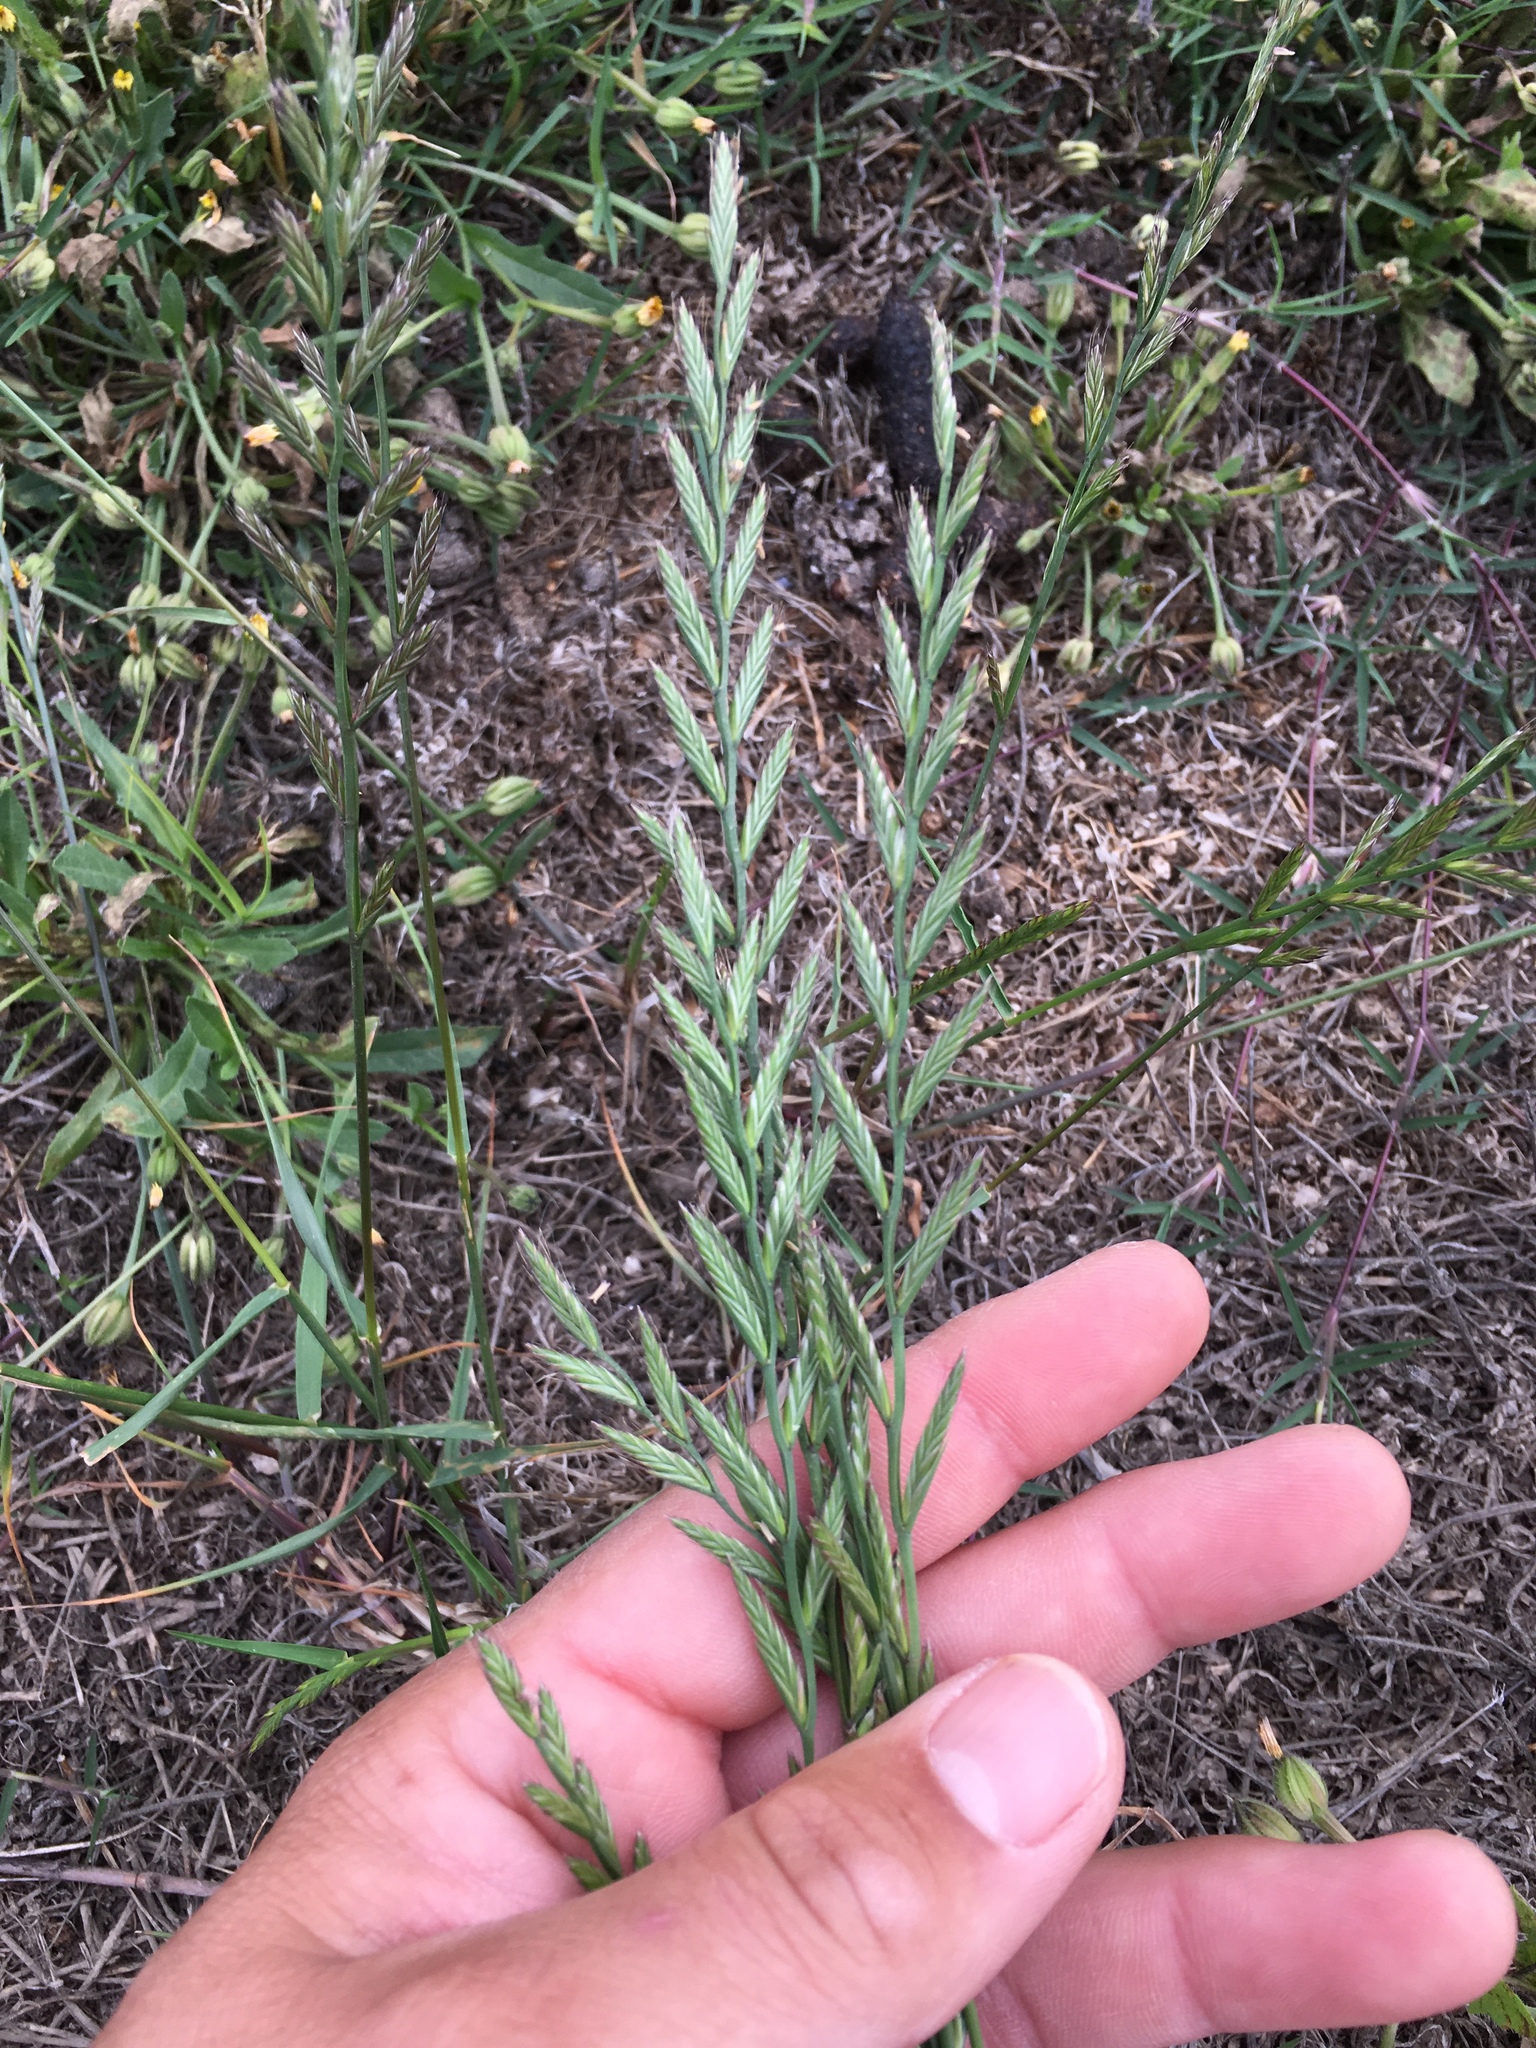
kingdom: Plantae
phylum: Tracheophyta
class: Liliopsida
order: Poales
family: Poaceae
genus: Lolium
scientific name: Lolium perenne
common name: Perennial ryegrass
